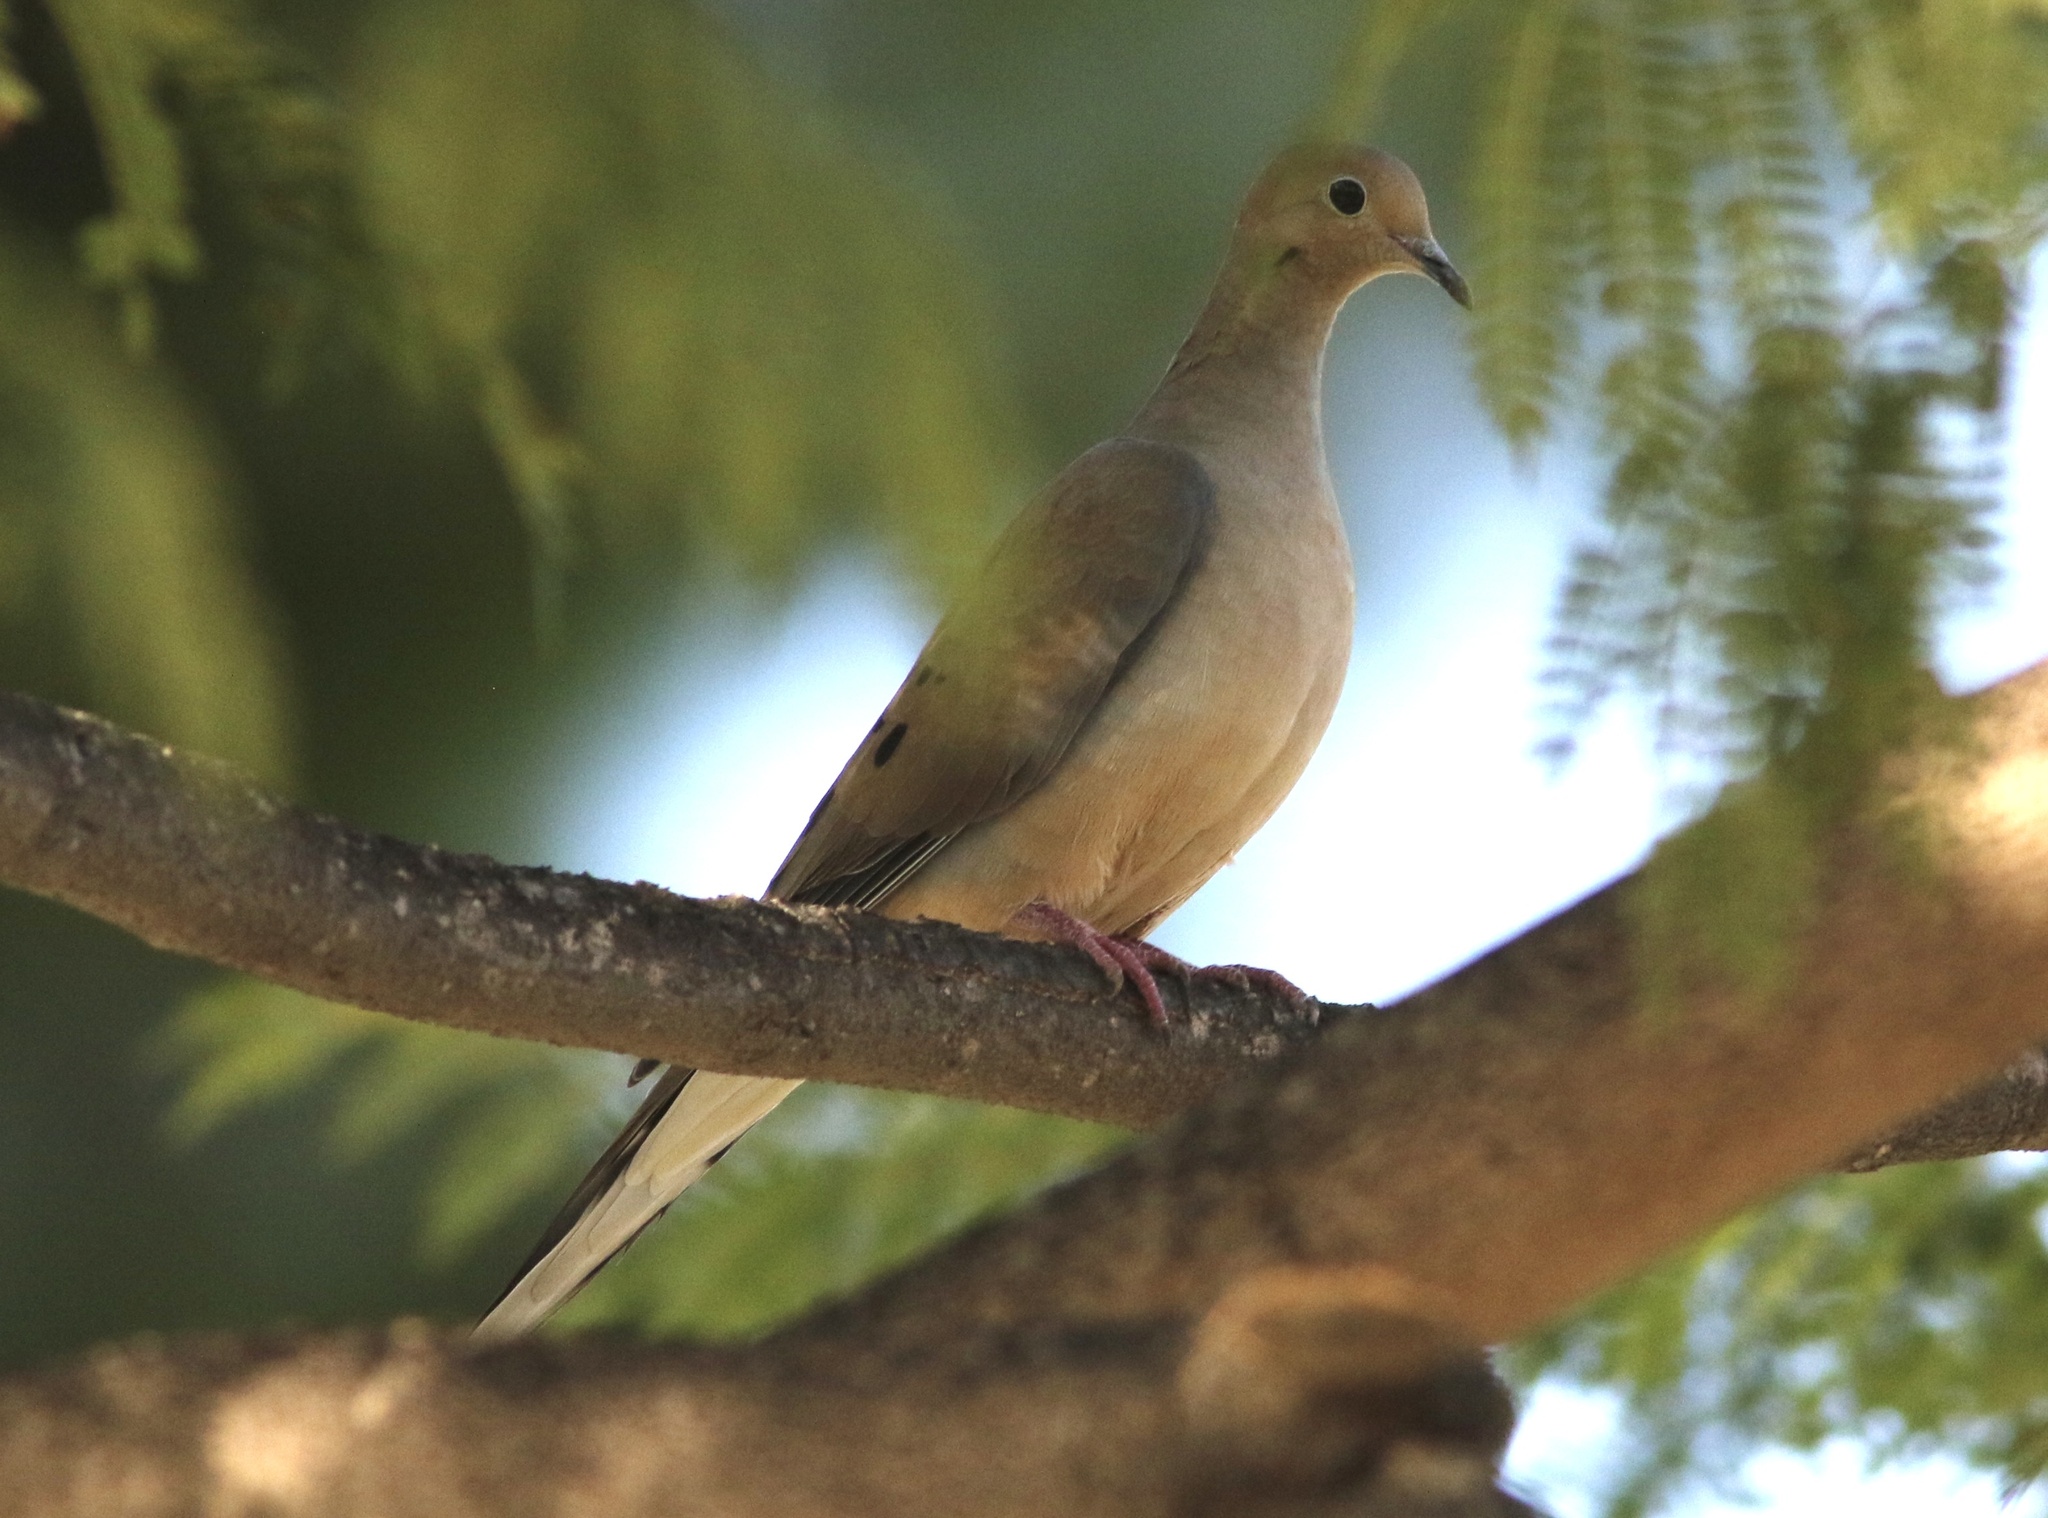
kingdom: Animalia
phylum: Chordata
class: Aves
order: Columbiformes
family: Columbidae
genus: Zenaida
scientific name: Zenaida macroura
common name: Mourning dove
